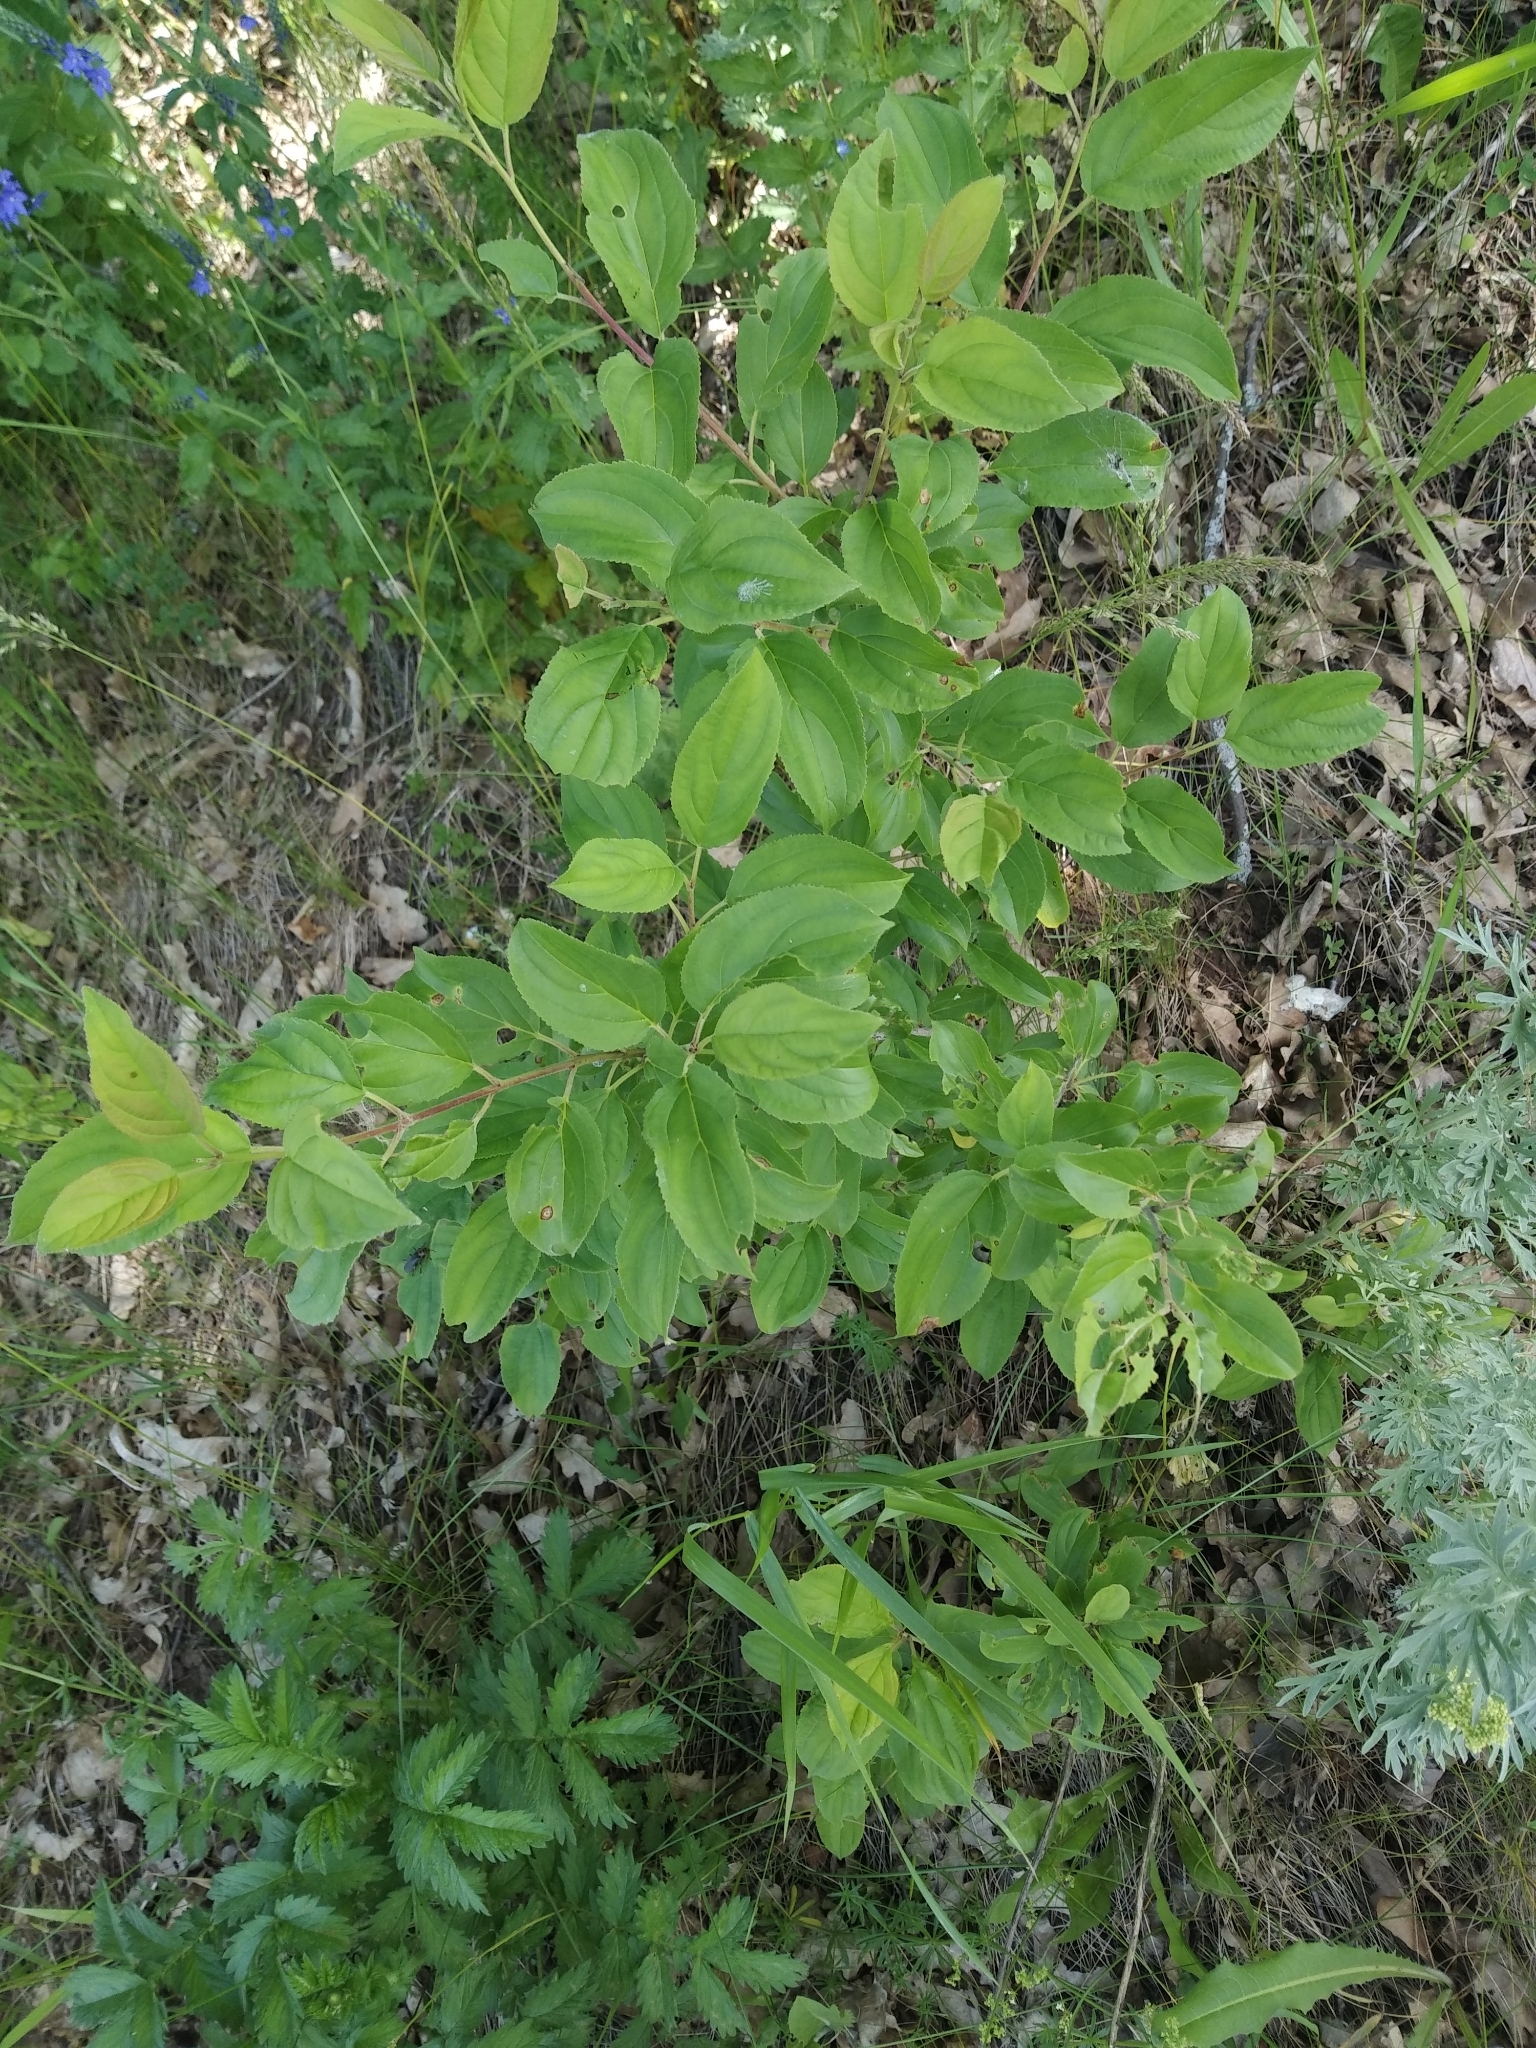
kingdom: Plantae
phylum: Tracheophyta
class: Magnoliopsida
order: Rosales
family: Rhamnaceae
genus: Rhamnus
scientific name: Rhamnus cathartica
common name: Common buckthorn
